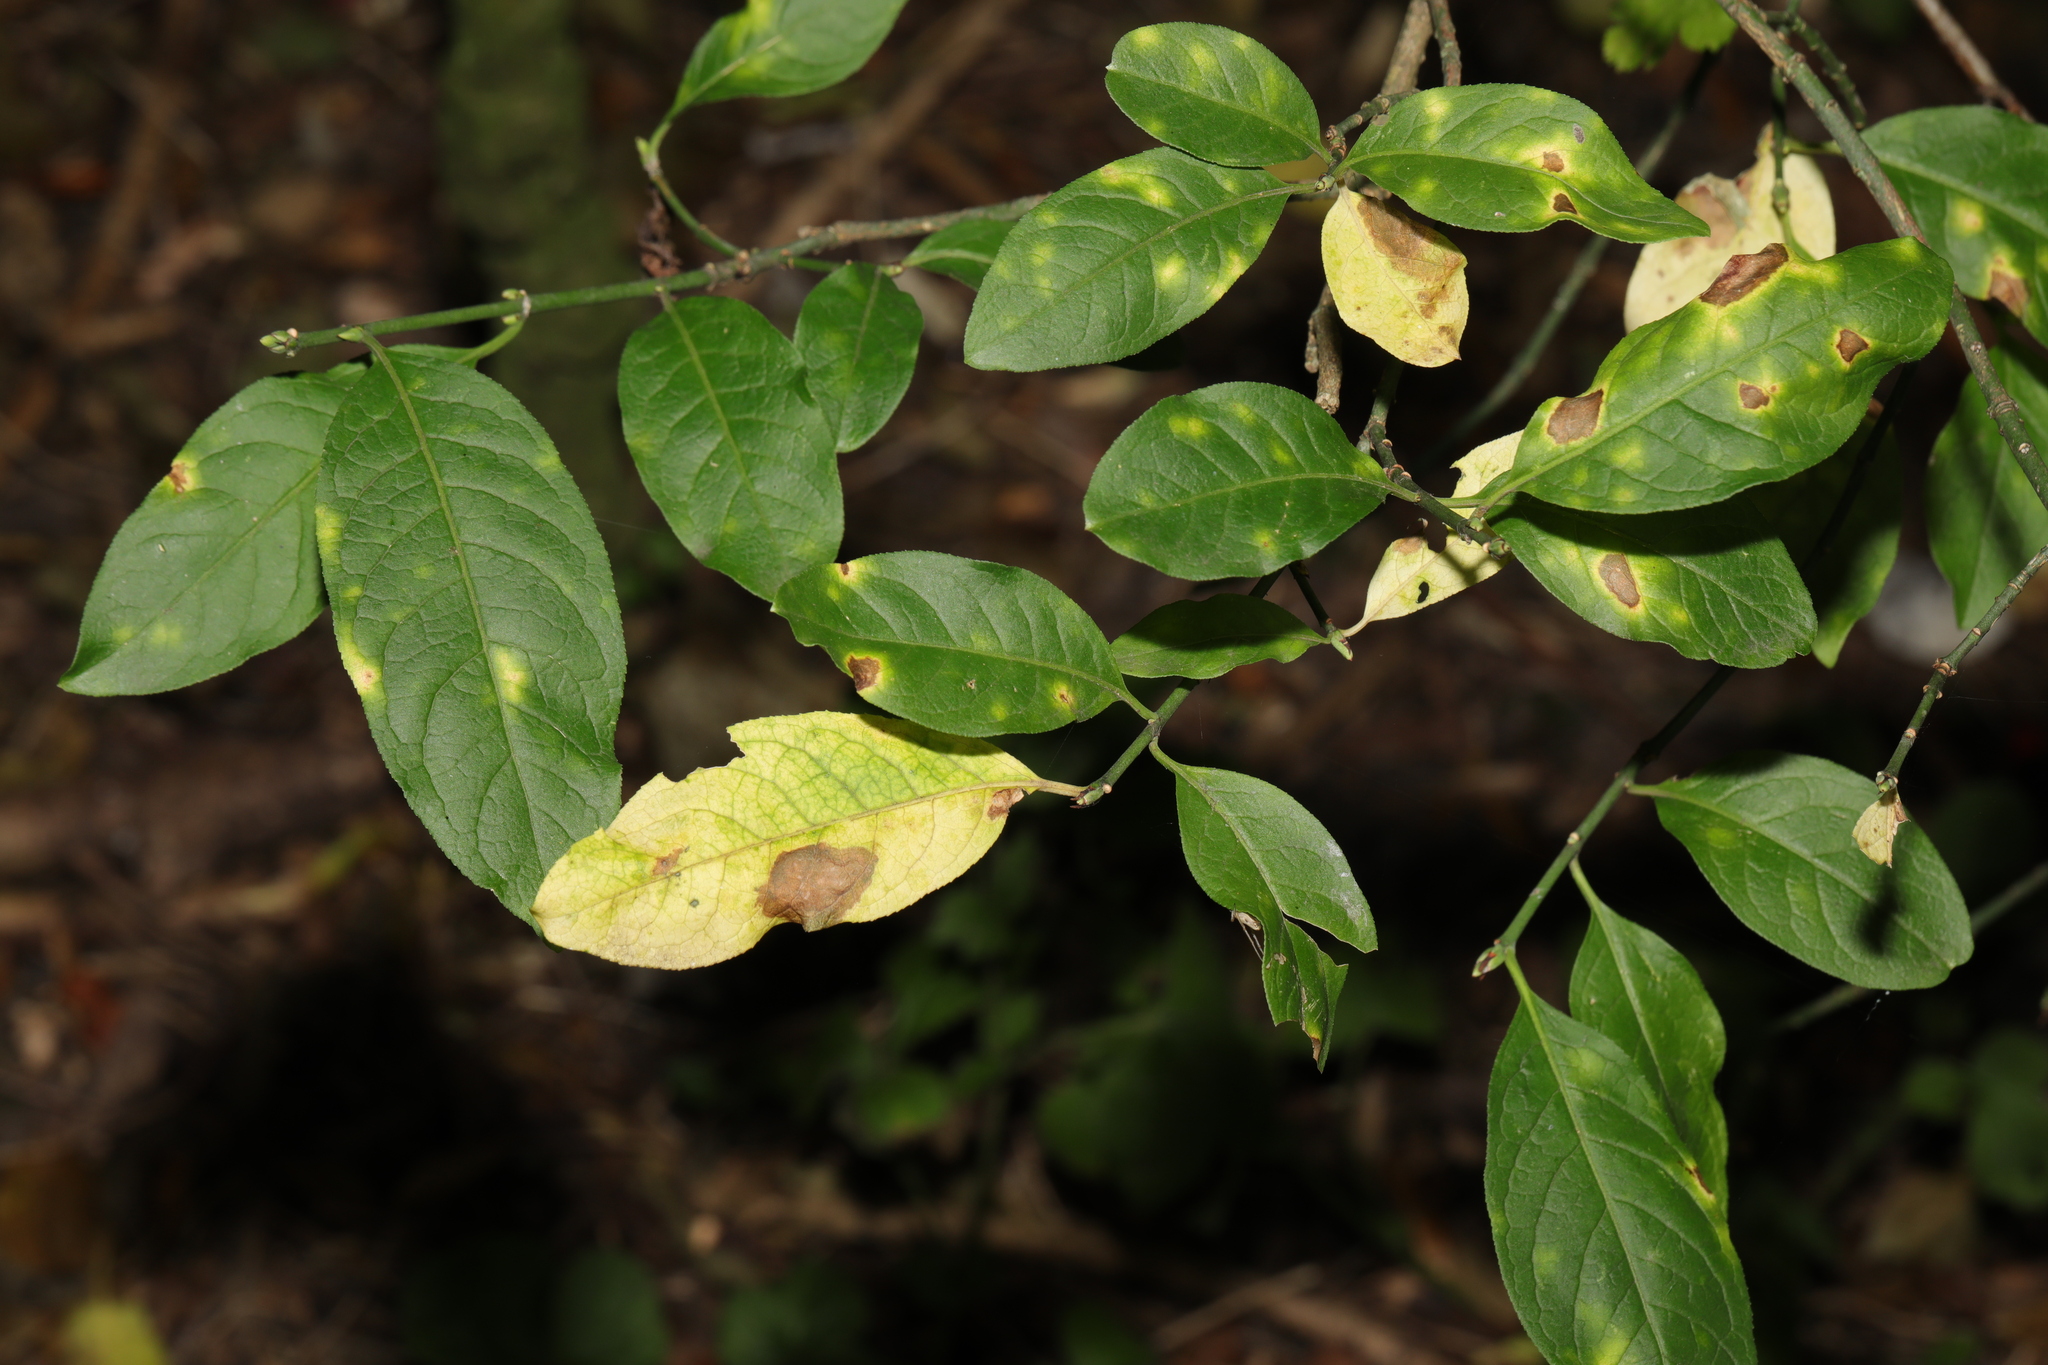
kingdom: Plantae
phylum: Tracheophyta
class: Magnoliopsida
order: Celastrales
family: Celastraceae
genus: Euonymus
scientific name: Euonymus europaeus
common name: Spindle
